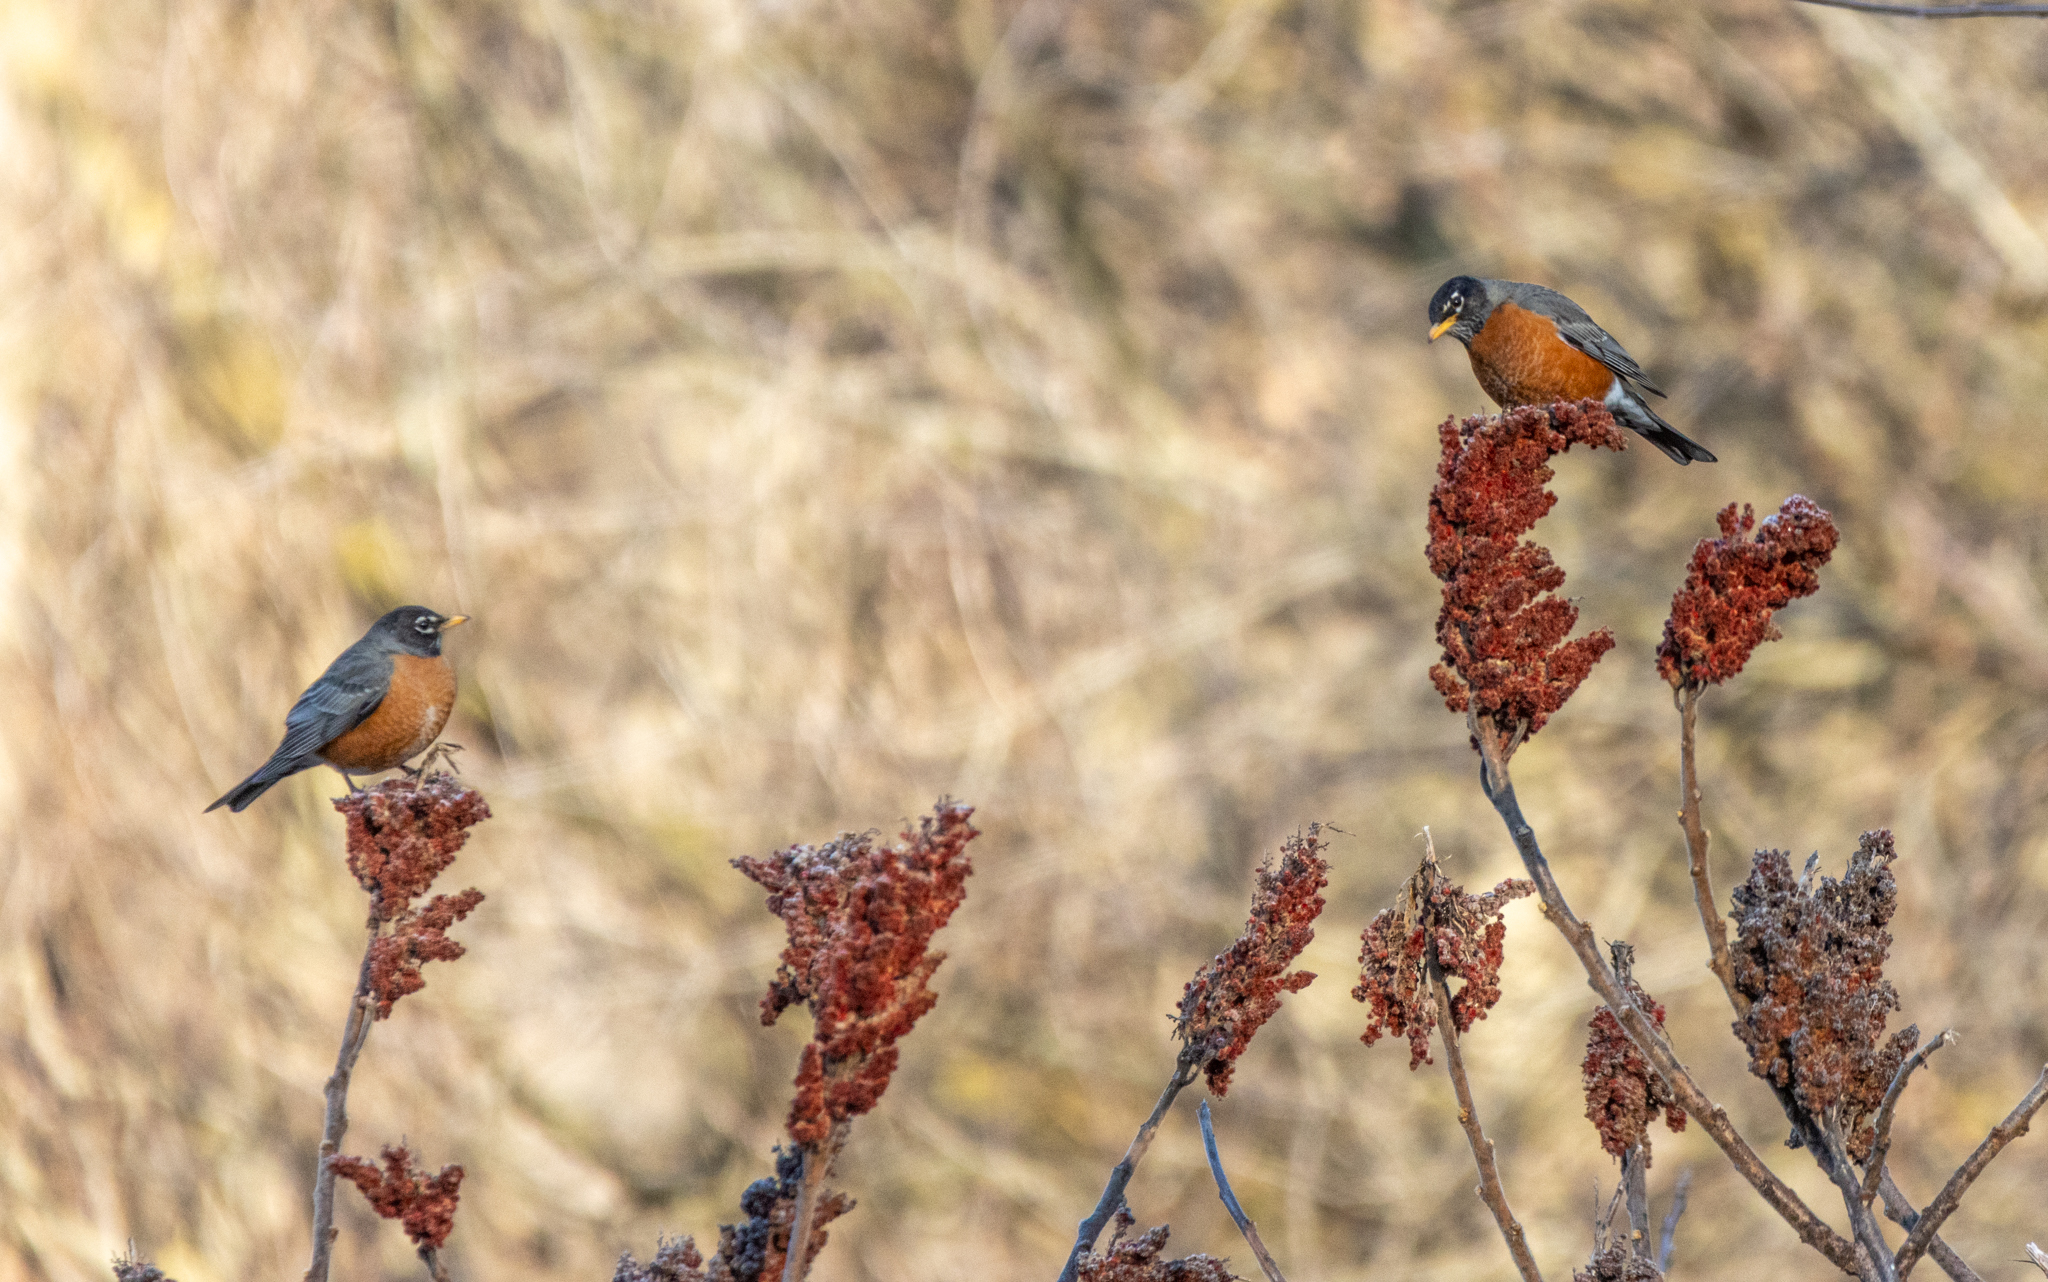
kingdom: Animalia
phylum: Chordata
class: Aves
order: Passeriformes
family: Turdidae
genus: Turdus
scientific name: Turdus migratorius
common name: American robin
